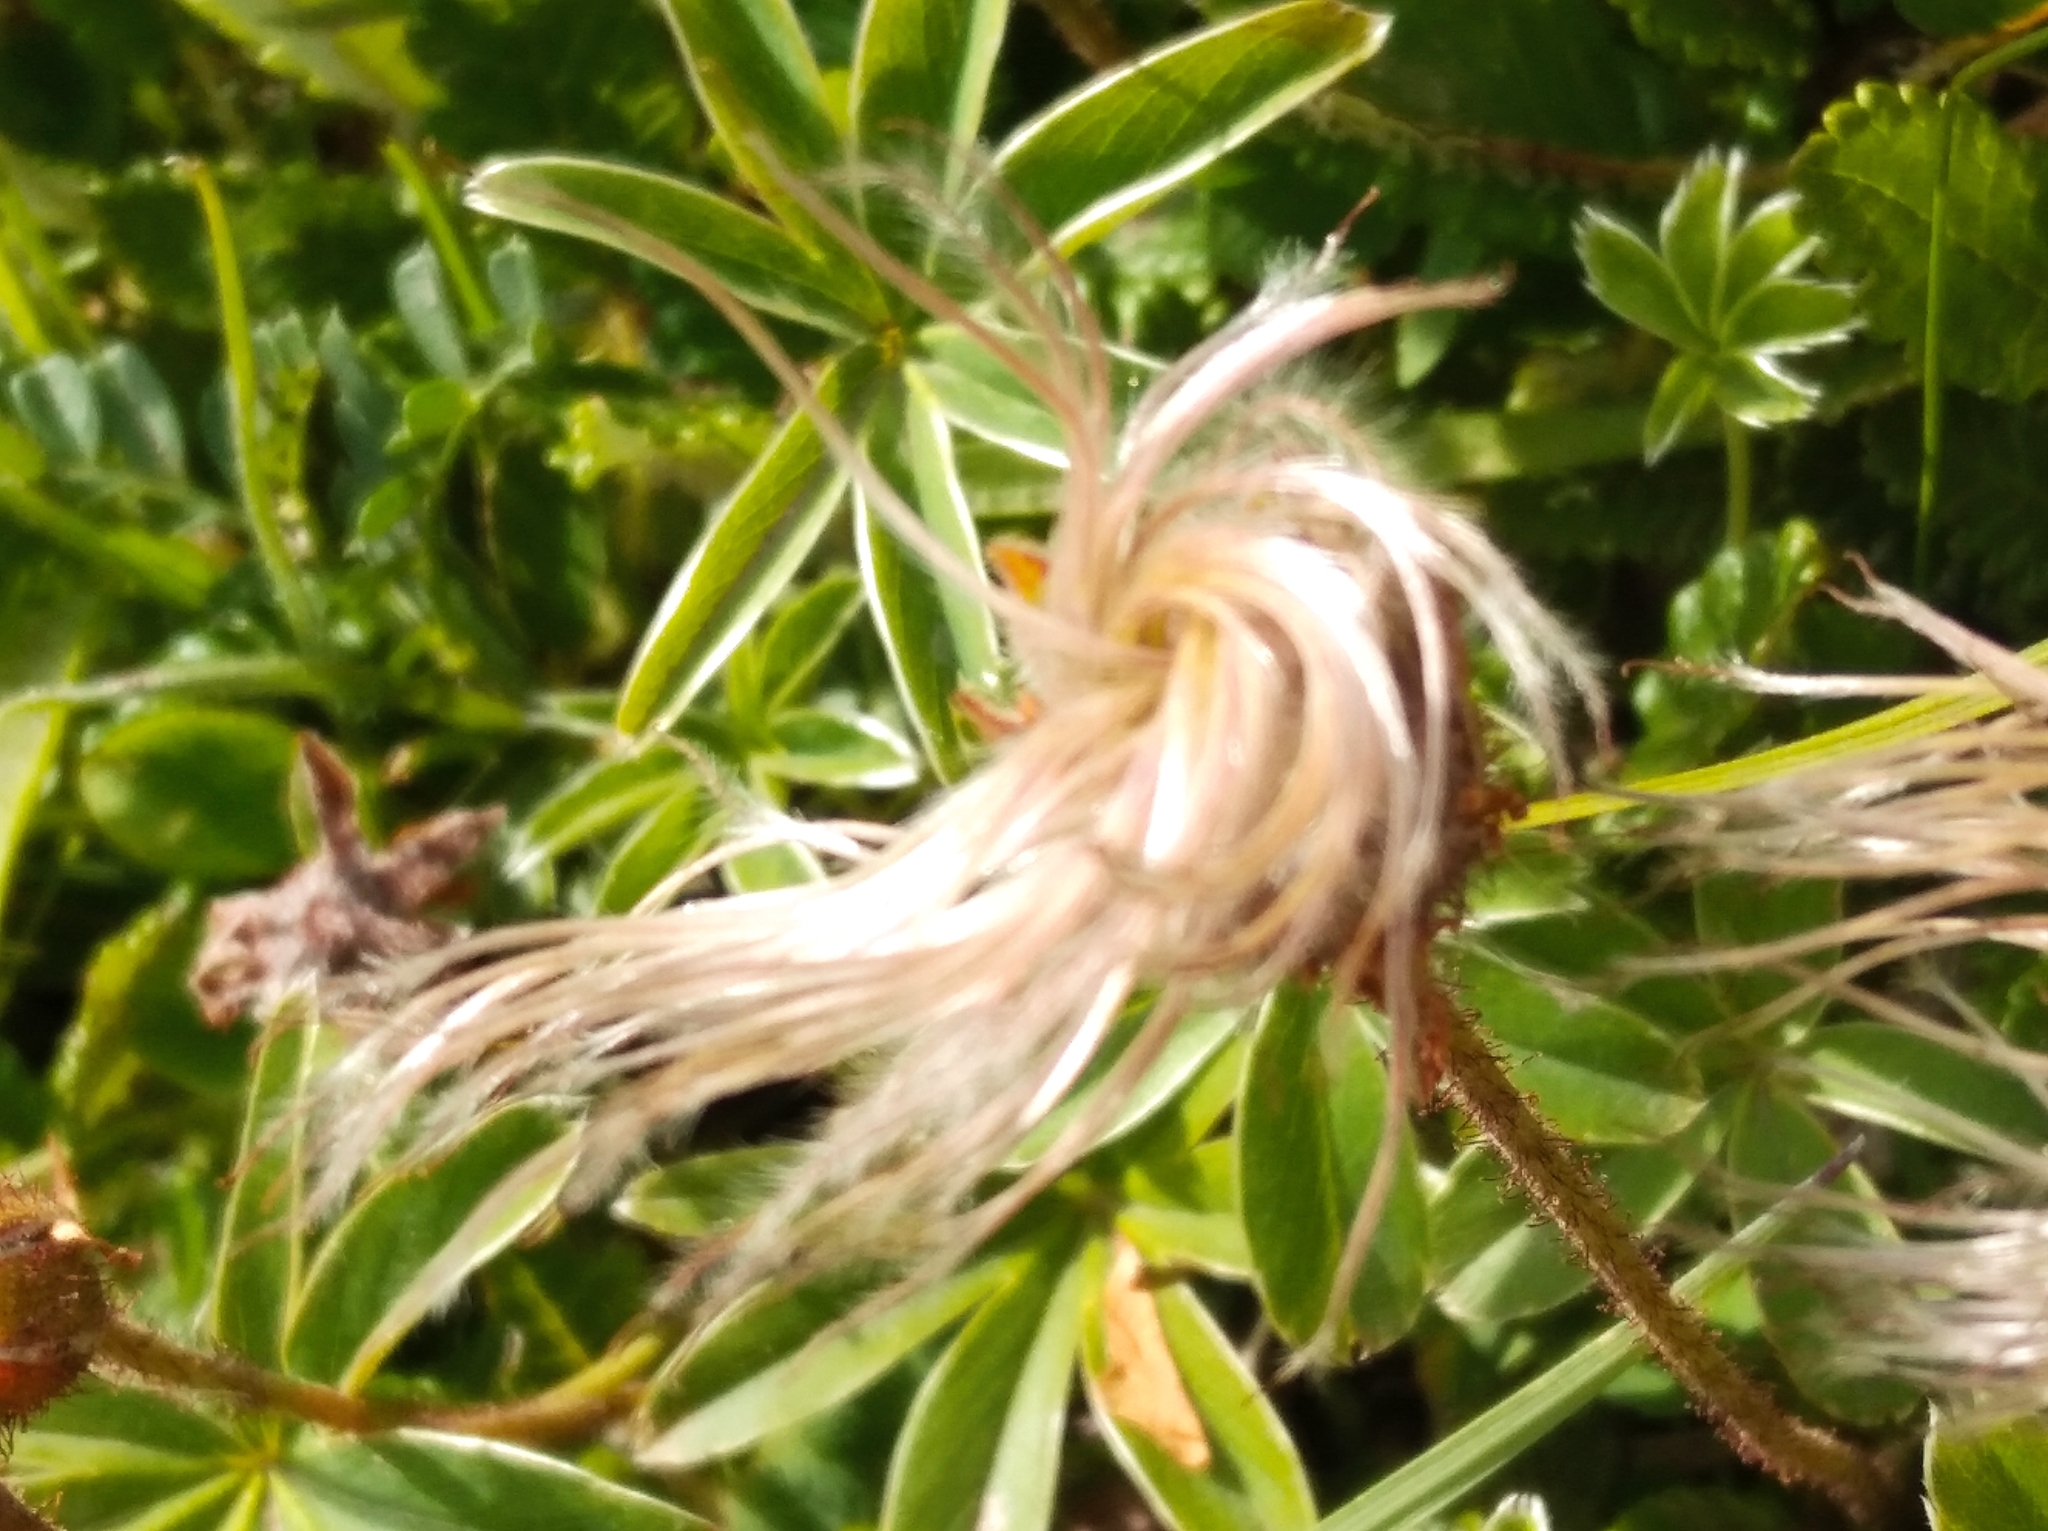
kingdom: Plantae
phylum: Tracheophyta
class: Magnoliopsida
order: Rosales
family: Rosaceae
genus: Dryas
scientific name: Dryas octopetala
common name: Eight-petal mountain-avens
